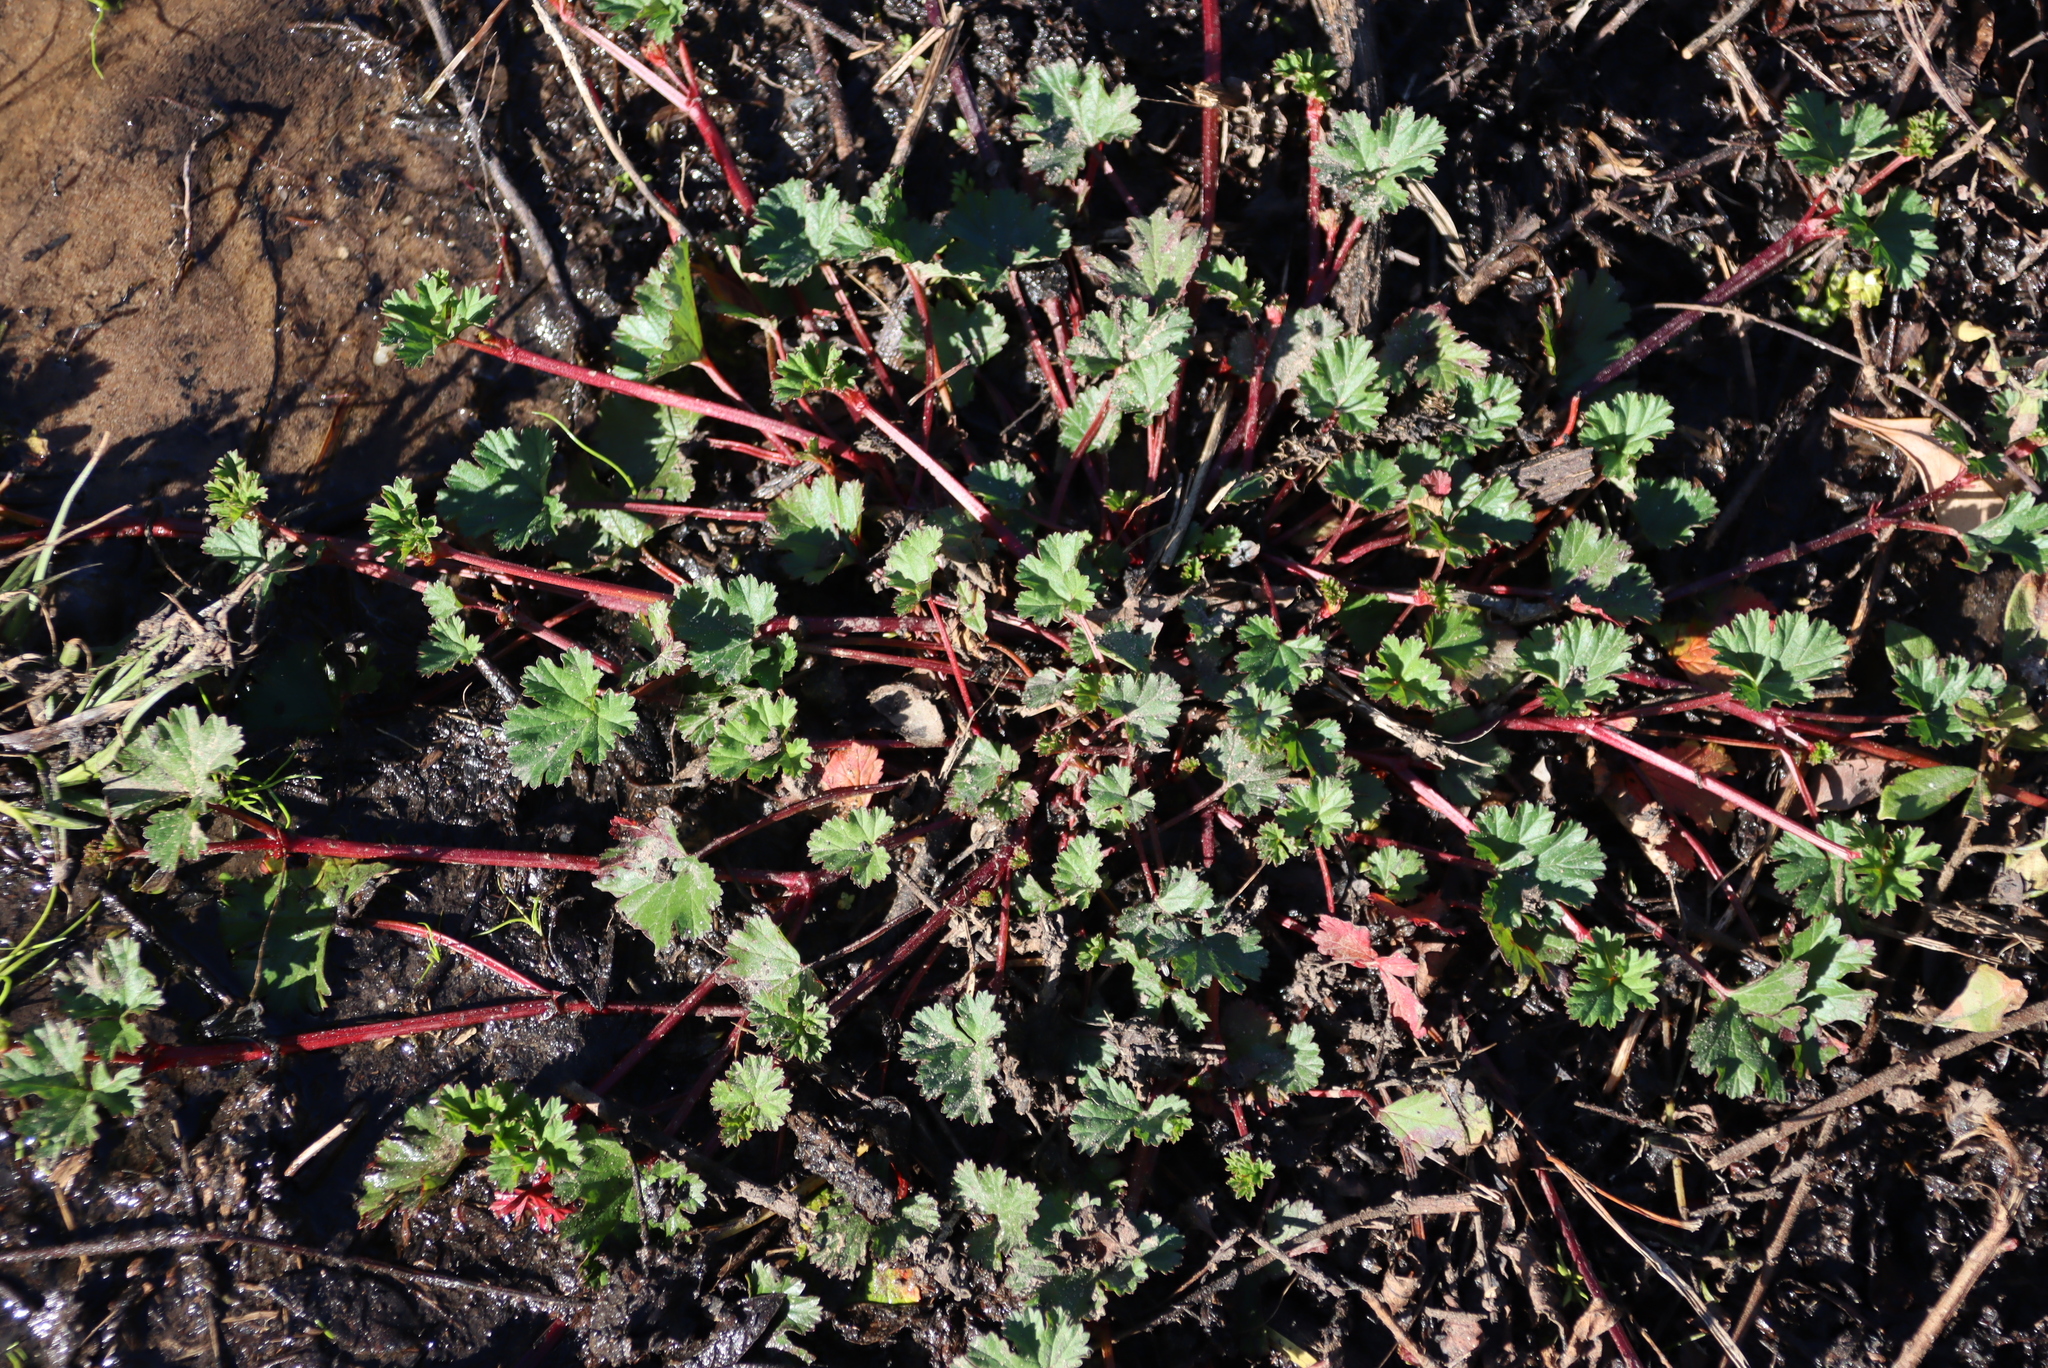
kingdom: Plantae
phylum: Tracheophyta
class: Magnoliopsida
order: Geraniales
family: Geraniaceae
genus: Pelargonium
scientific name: Pelargonium grossularioides
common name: Gooseberry geranium
